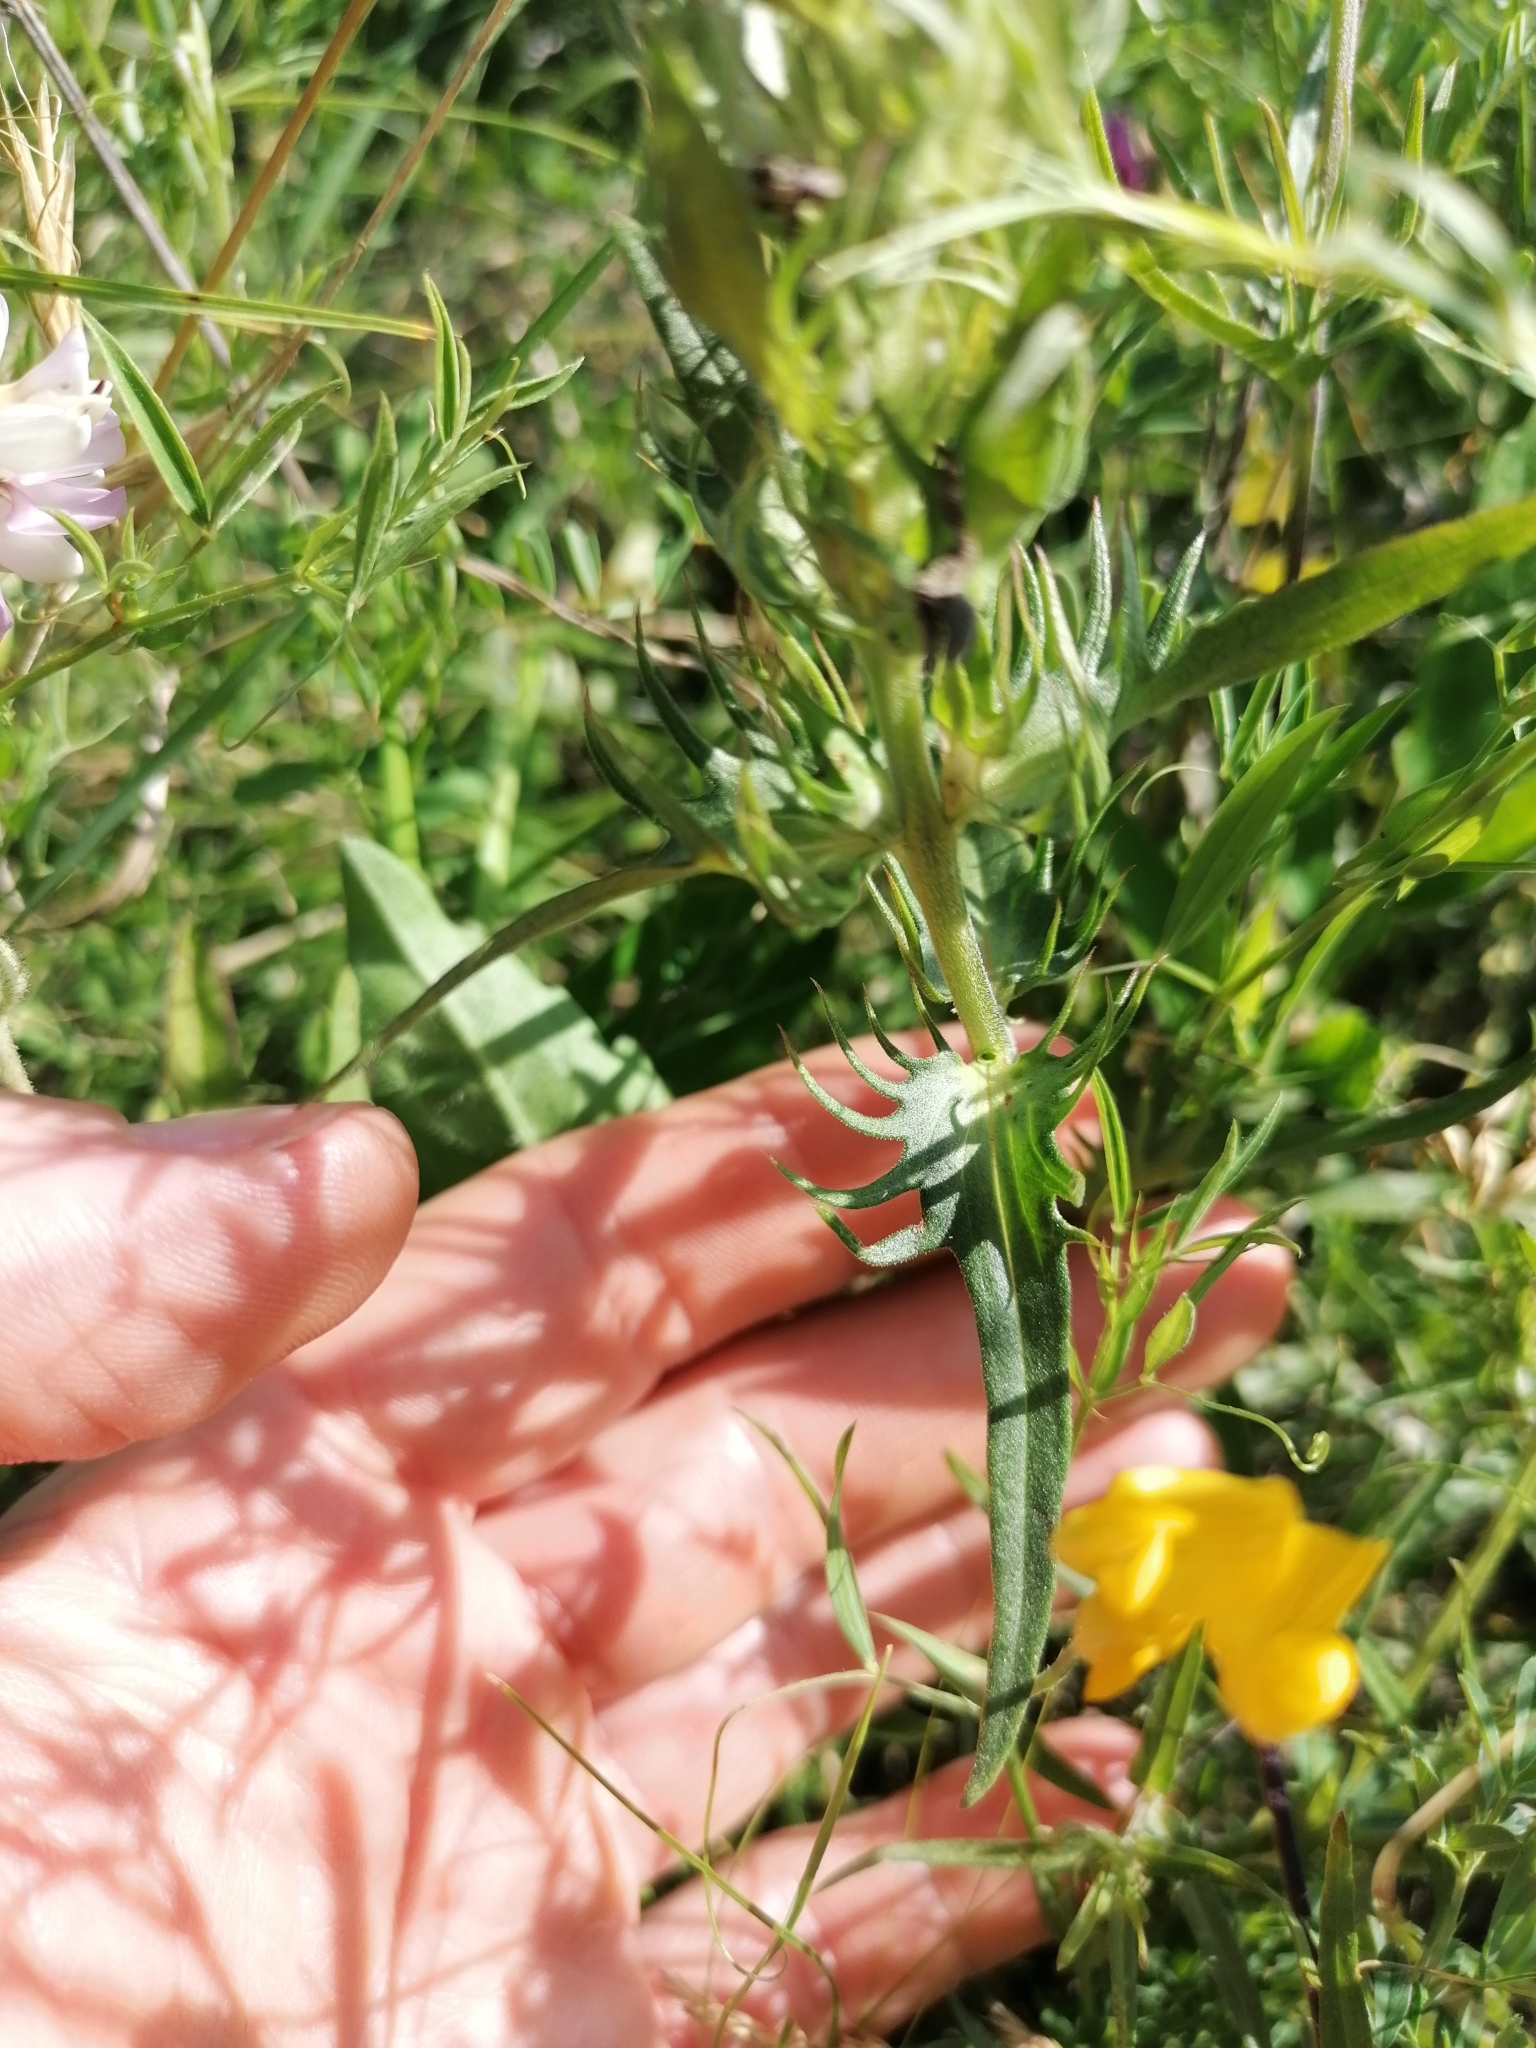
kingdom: Plantae
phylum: Tracheophyta
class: Magnoliopsida
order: Lamiales
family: Orobanchaceae
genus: Melampyrum
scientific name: Melampyrum arvense
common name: Field cow-wheat
